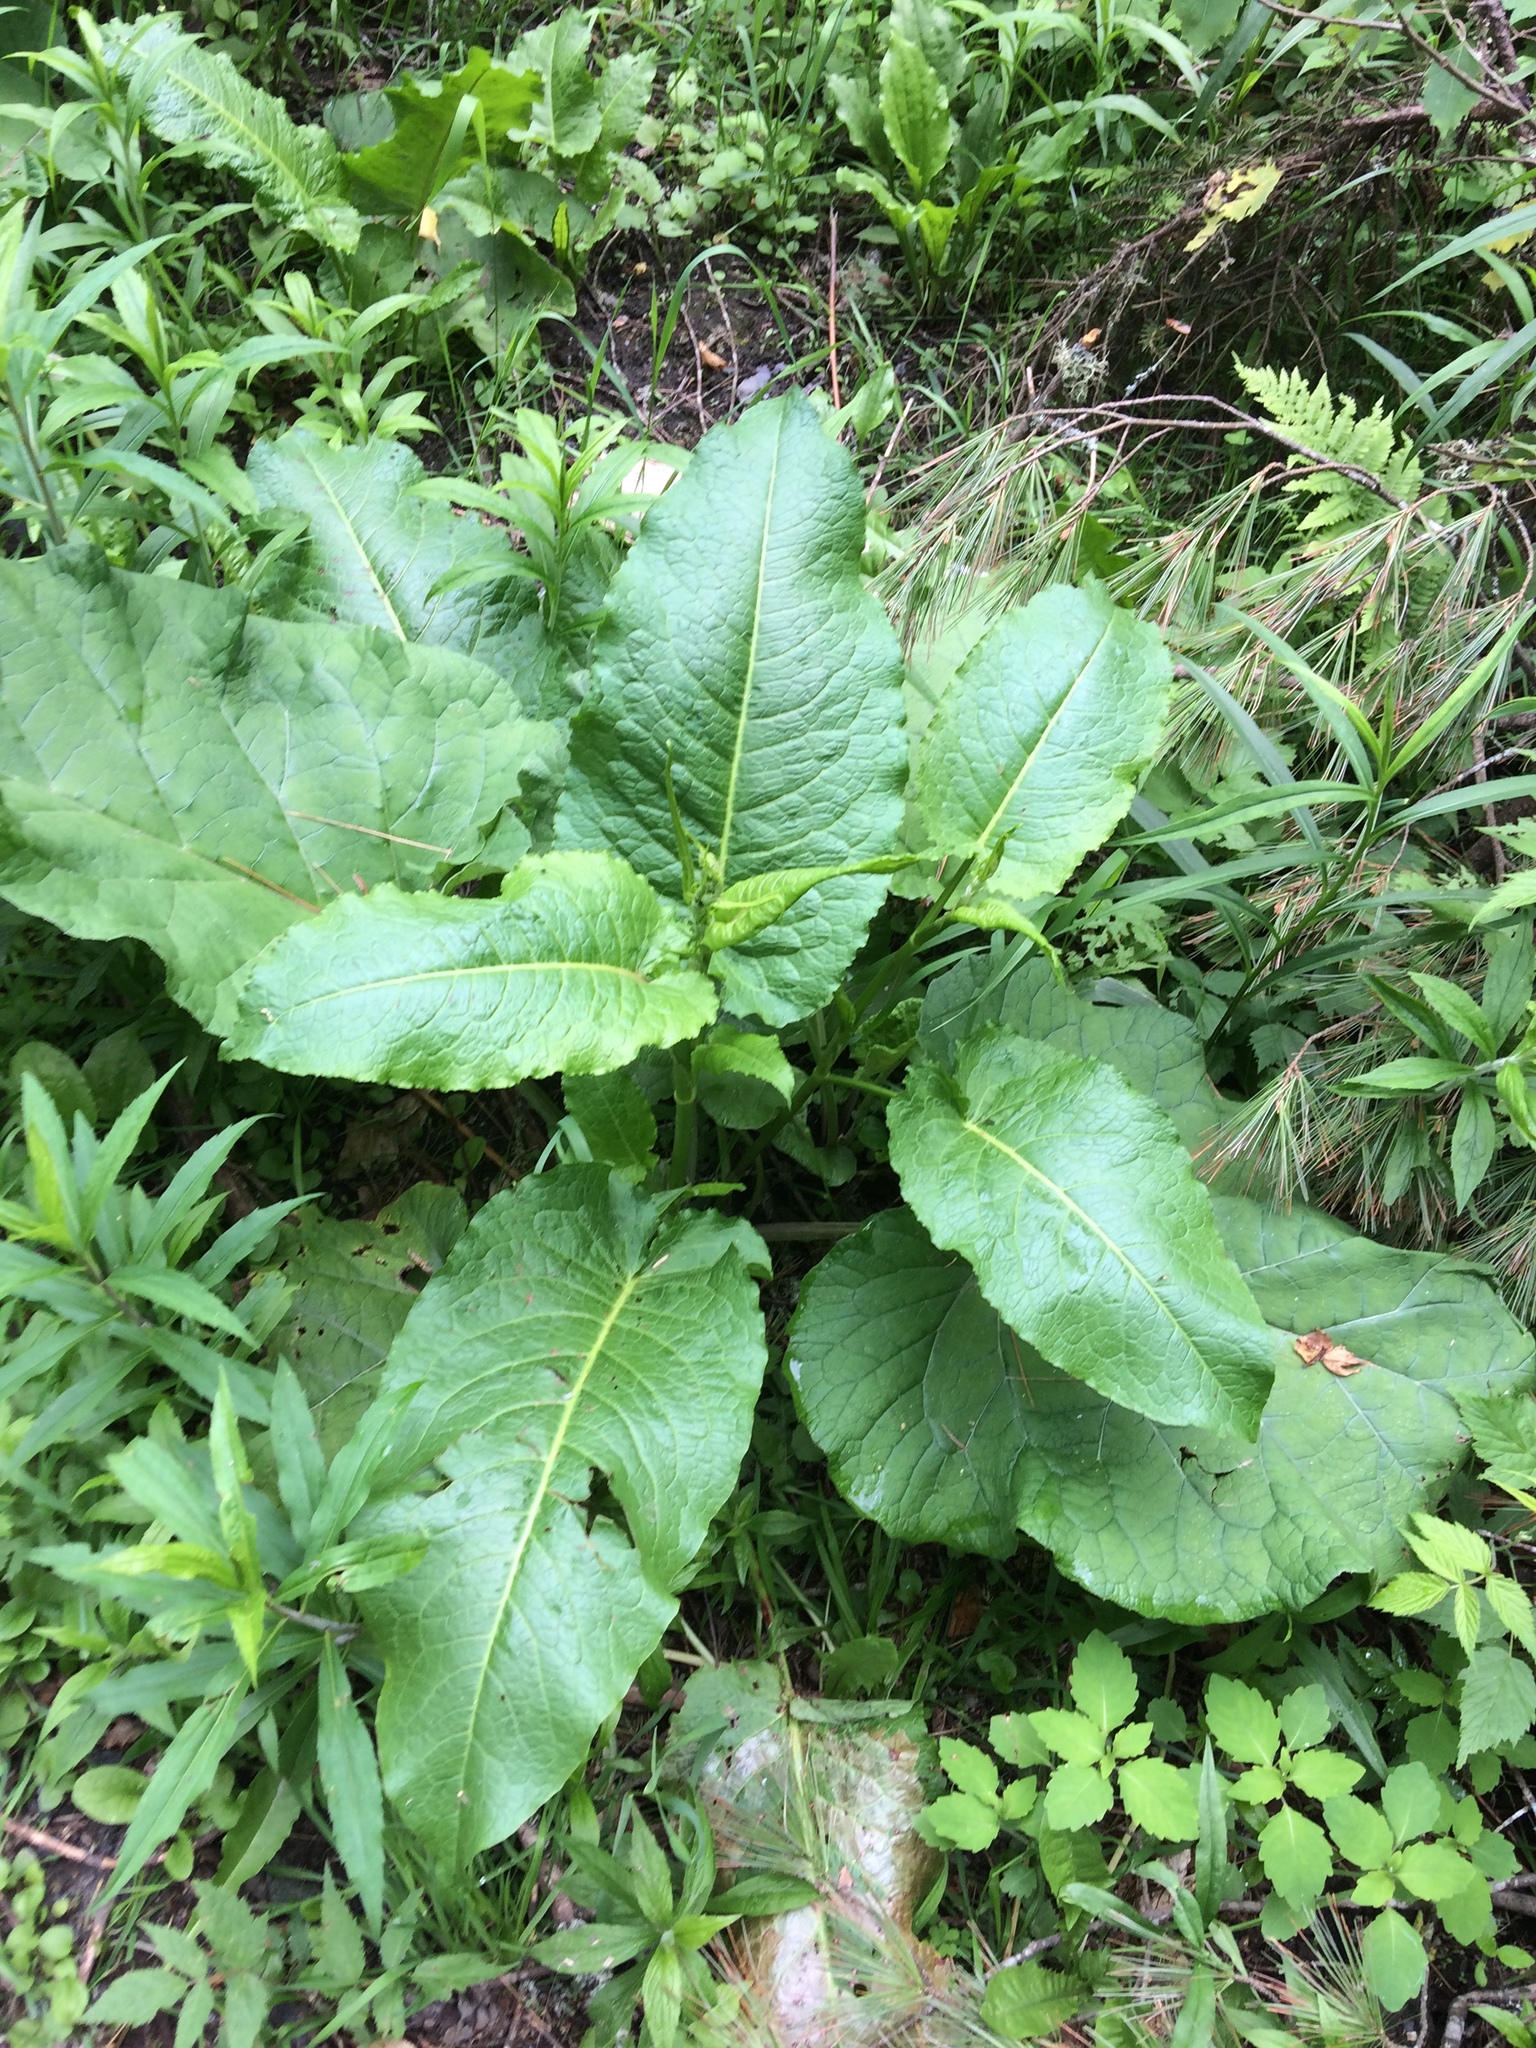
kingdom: Plantae
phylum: Tracheophyta
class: Magnoliopsida
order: Caryophyllales
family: Polygonaceae
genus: Rumex
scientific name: Rumex obtusifolius
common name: Bitter dock
